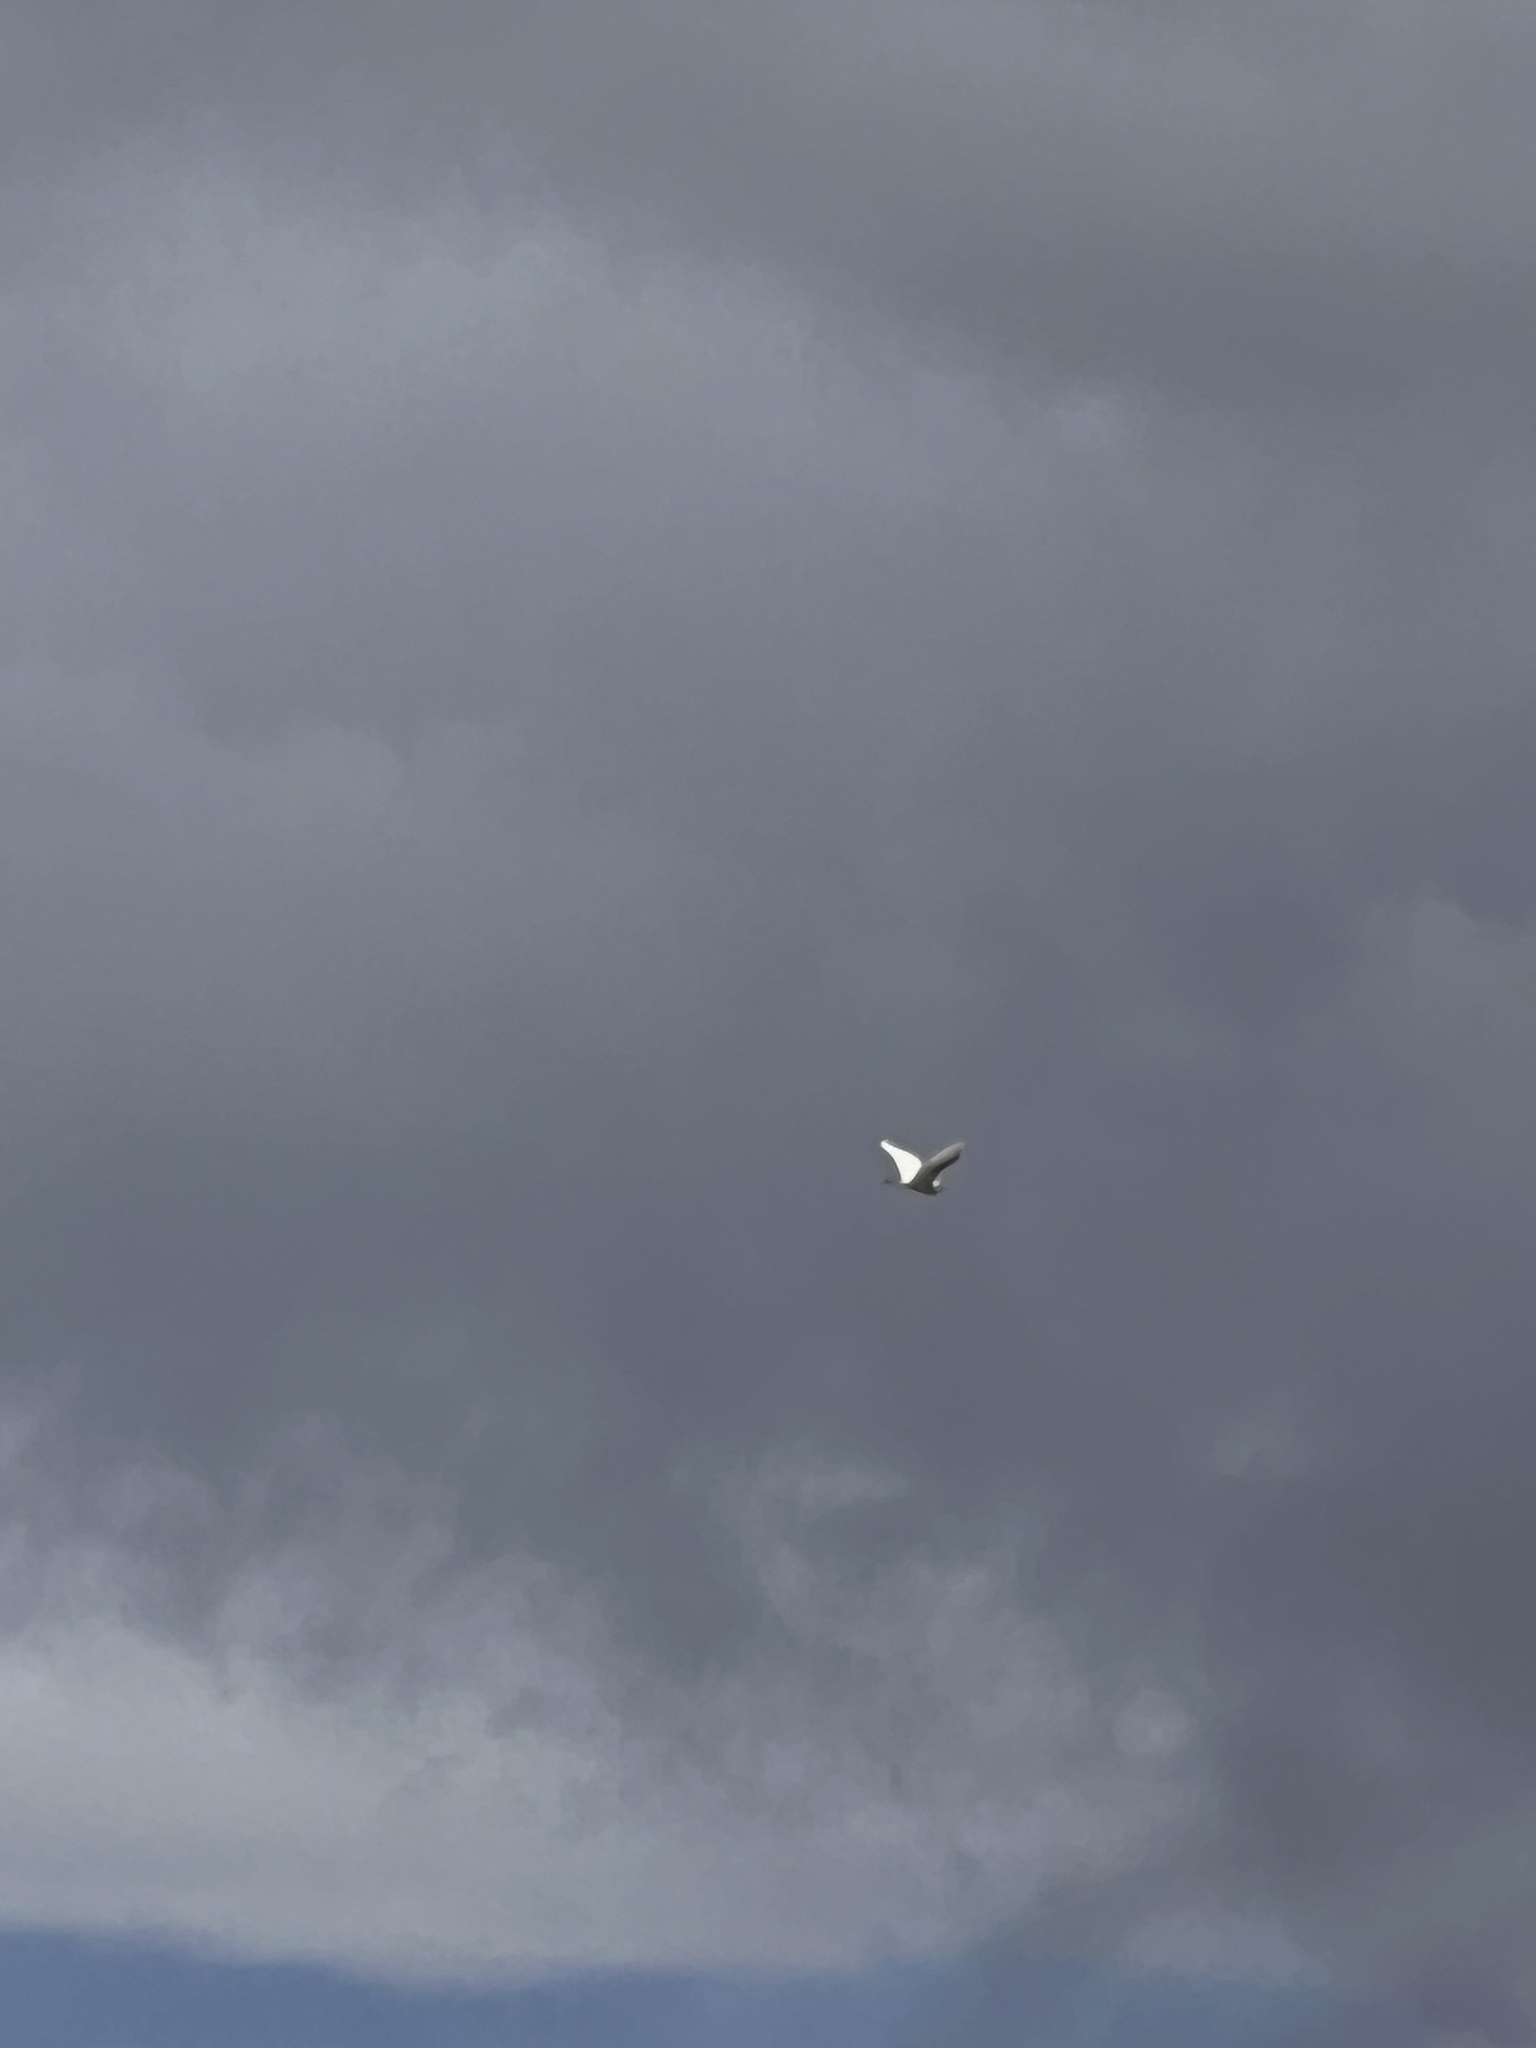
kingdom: Animalia
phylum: Chordata
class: Aves
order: Pelecaniformes
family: Ardeidae
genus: Bubulcus
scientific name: Bubulcus ibis
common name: Cattle egret
